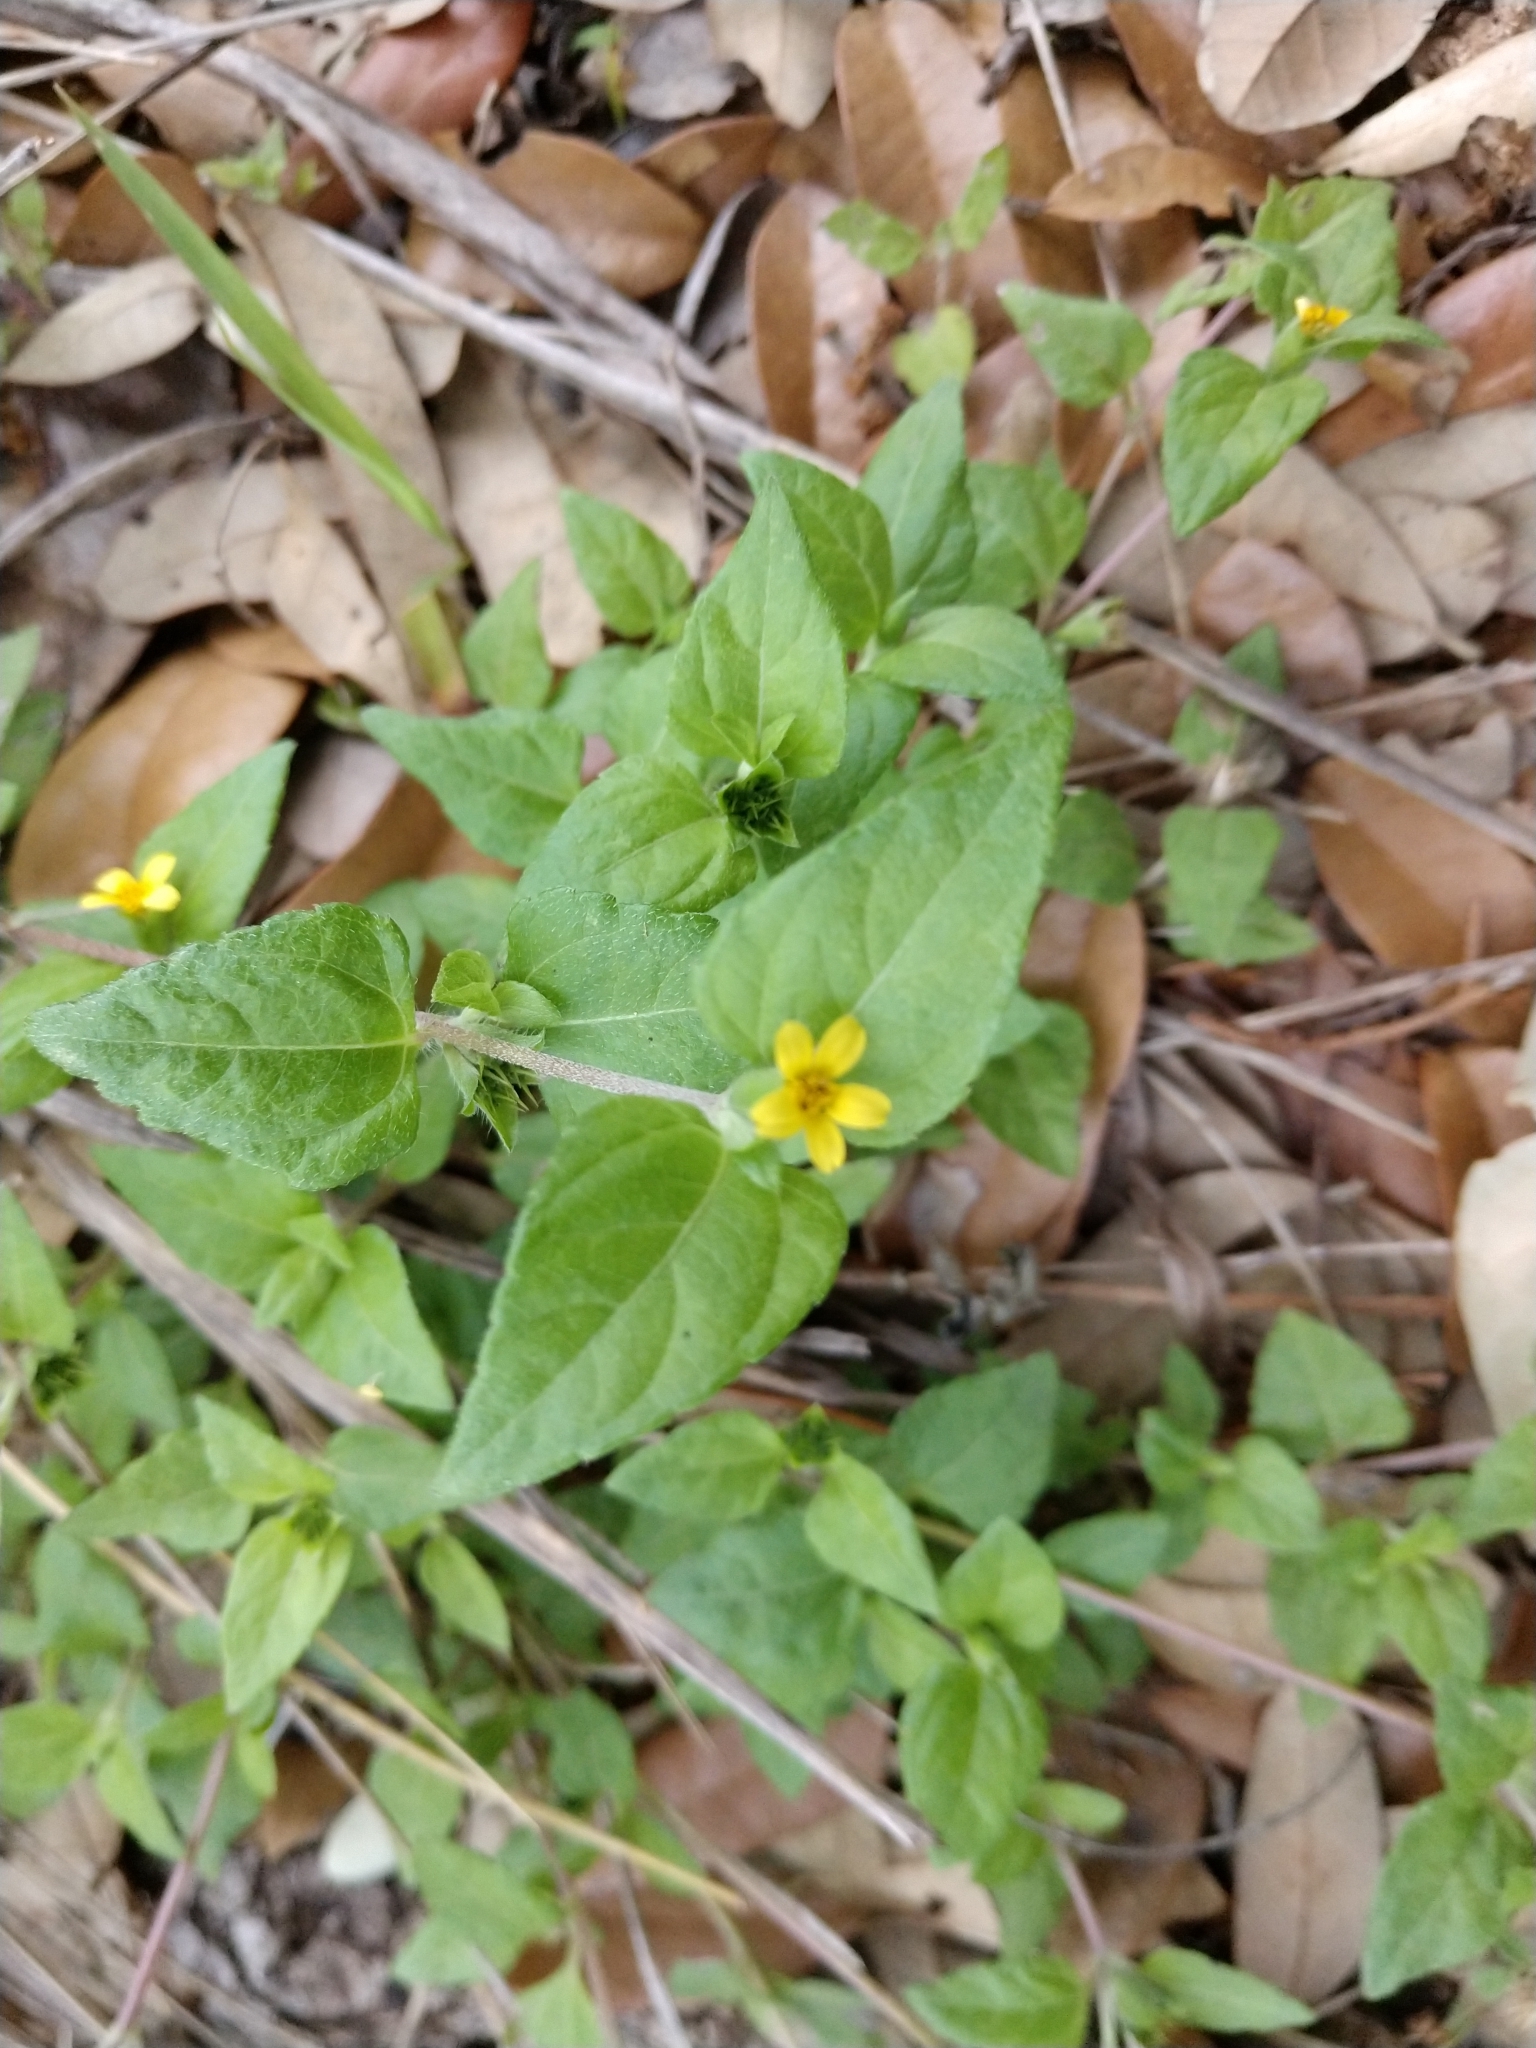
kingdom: Plantae
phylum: Tracheophyta
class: Magnoliopsida
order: Asterales
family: Asteraceae
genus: Calyptocarpus
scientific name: Calyptocarpus vialis
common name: Straggler daisy
